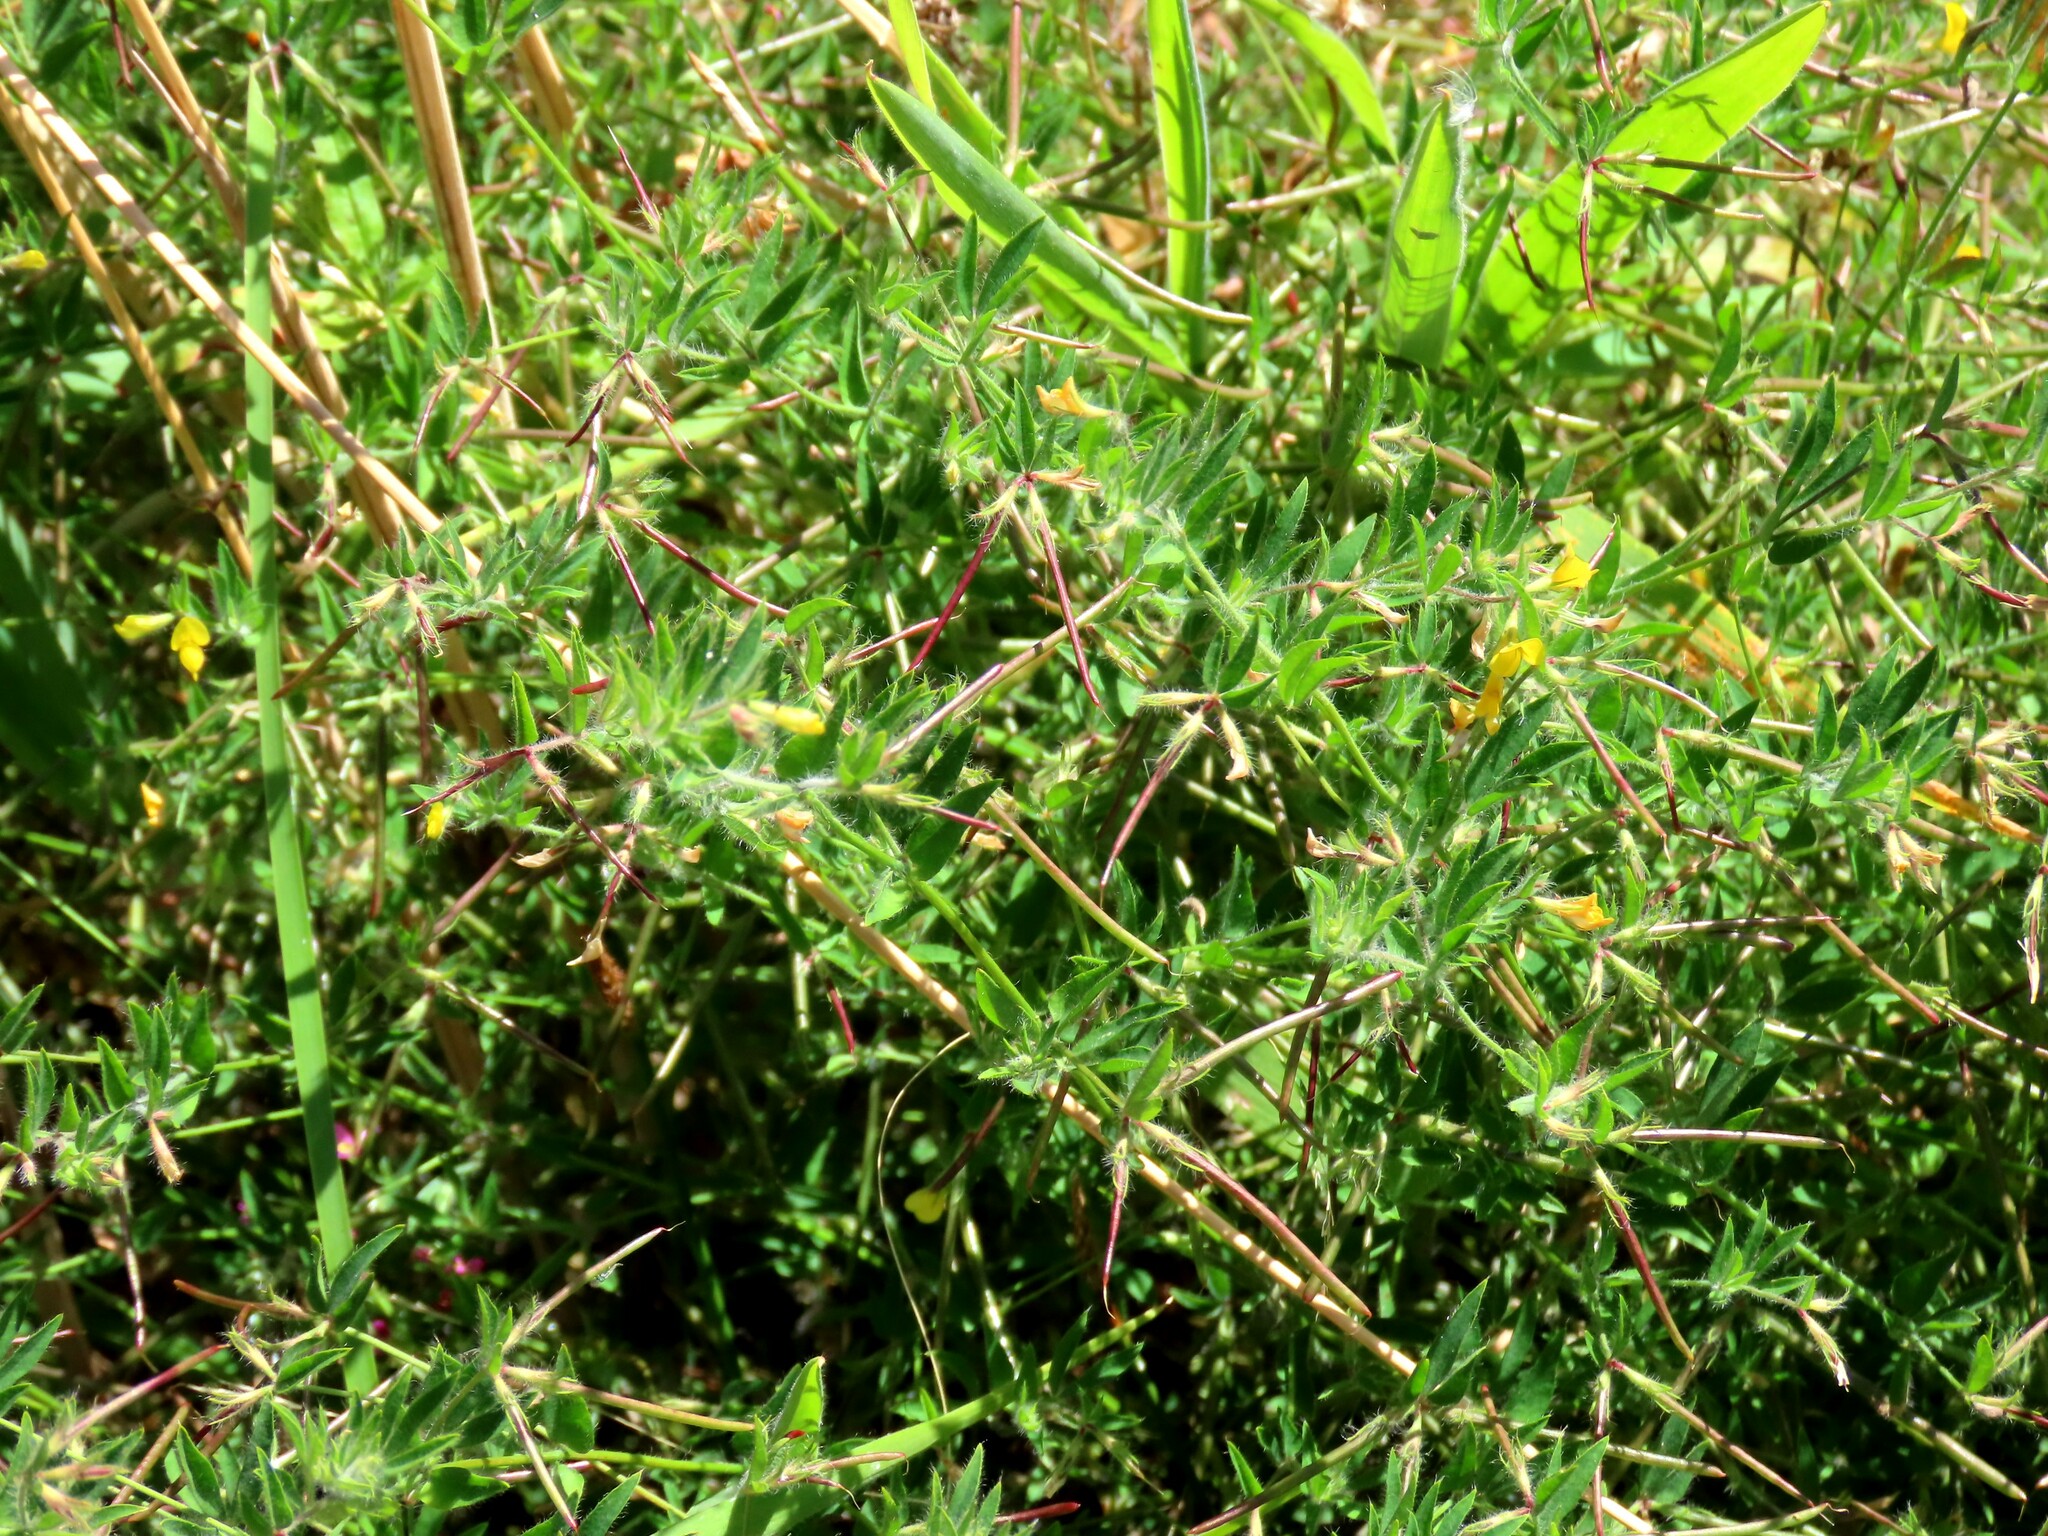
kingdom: Plantae
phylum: Tracheophyta
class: Magnoliopsida
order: Fabales
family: Fabaceae
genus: Lotus
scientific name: Lotus subbiflorus
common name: Hairy bird's-foot trefoil
